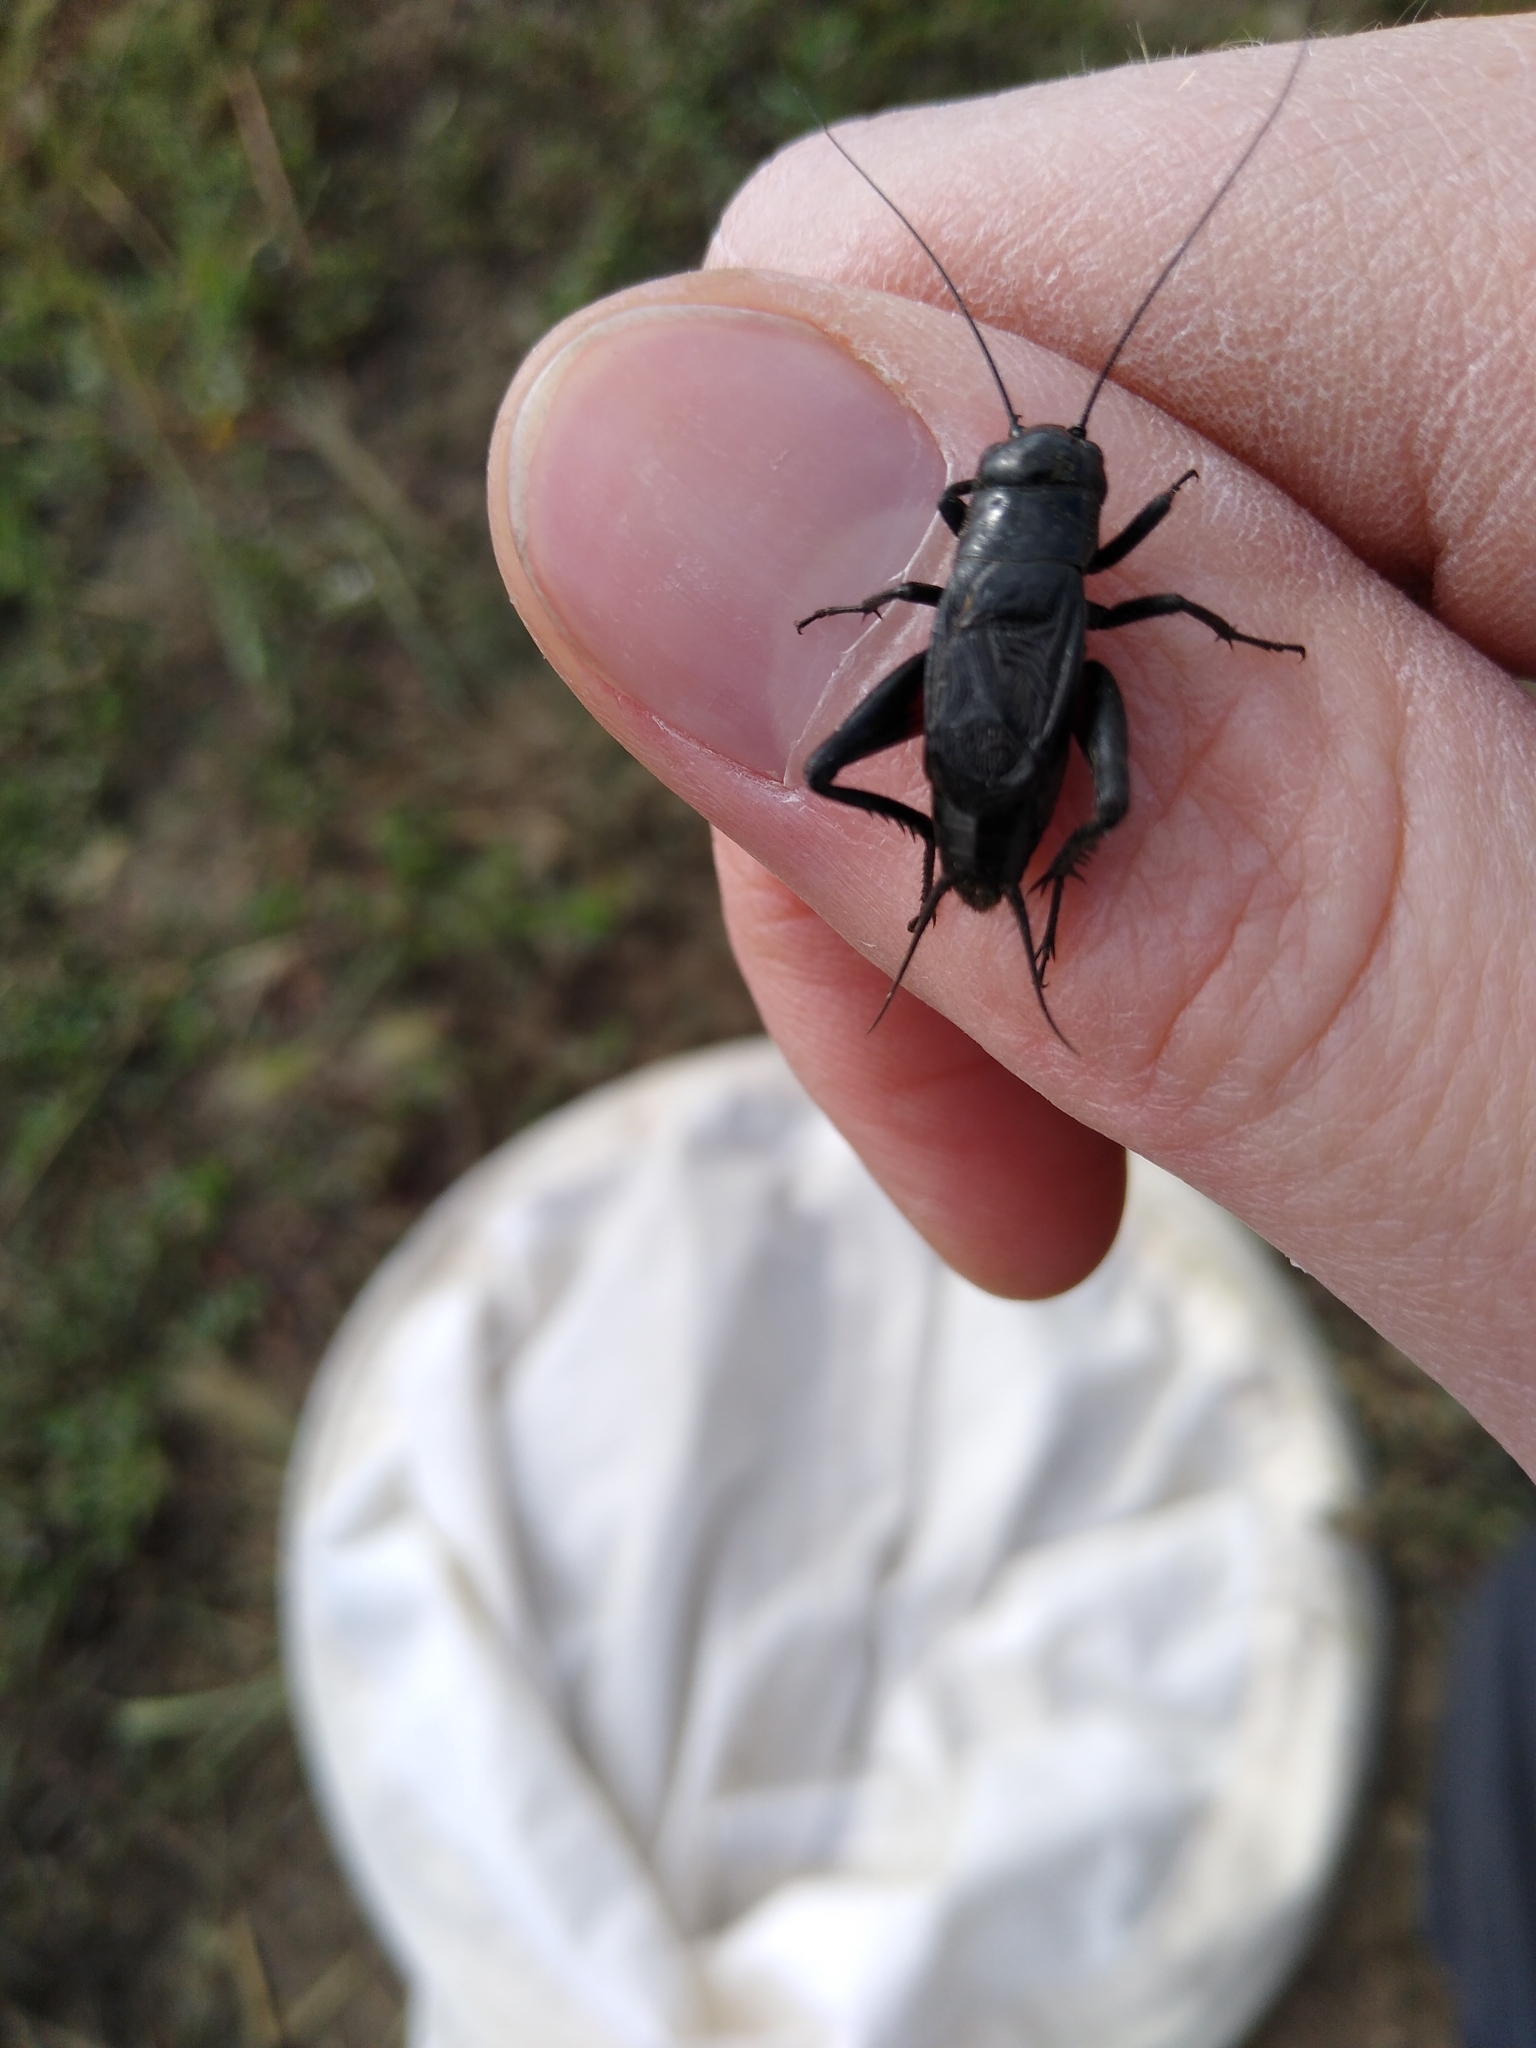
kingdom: Animalia
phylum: Arthropoda
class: Insecta
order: Orthoptera
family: Gryllidae
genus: Gryllus
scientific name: Gryllus pennsylvanicus
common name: Fall field cricket
